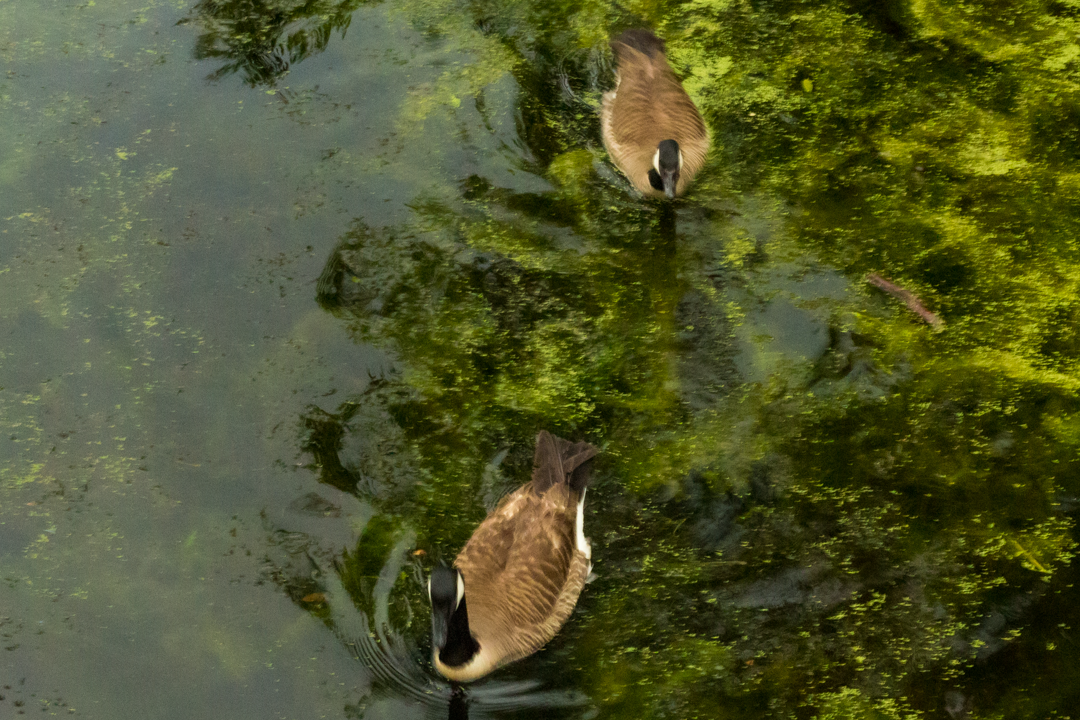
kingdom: Animalia
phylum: Chordata
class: Aves
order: Anseriformes
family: Anatidae
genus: Branta
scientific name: Branta canadensis
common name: Canada goose
